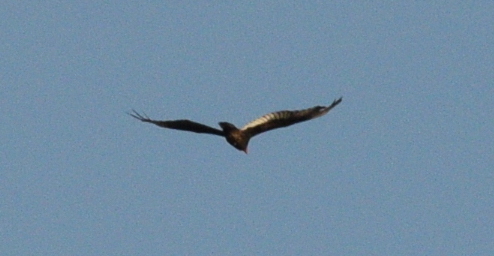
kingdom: Animalia
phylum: Chordata
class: Aves
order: Accipitriformes
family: Cathartidae
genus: Cathartes
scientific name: Cathartes aura
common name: Turkey vulture
